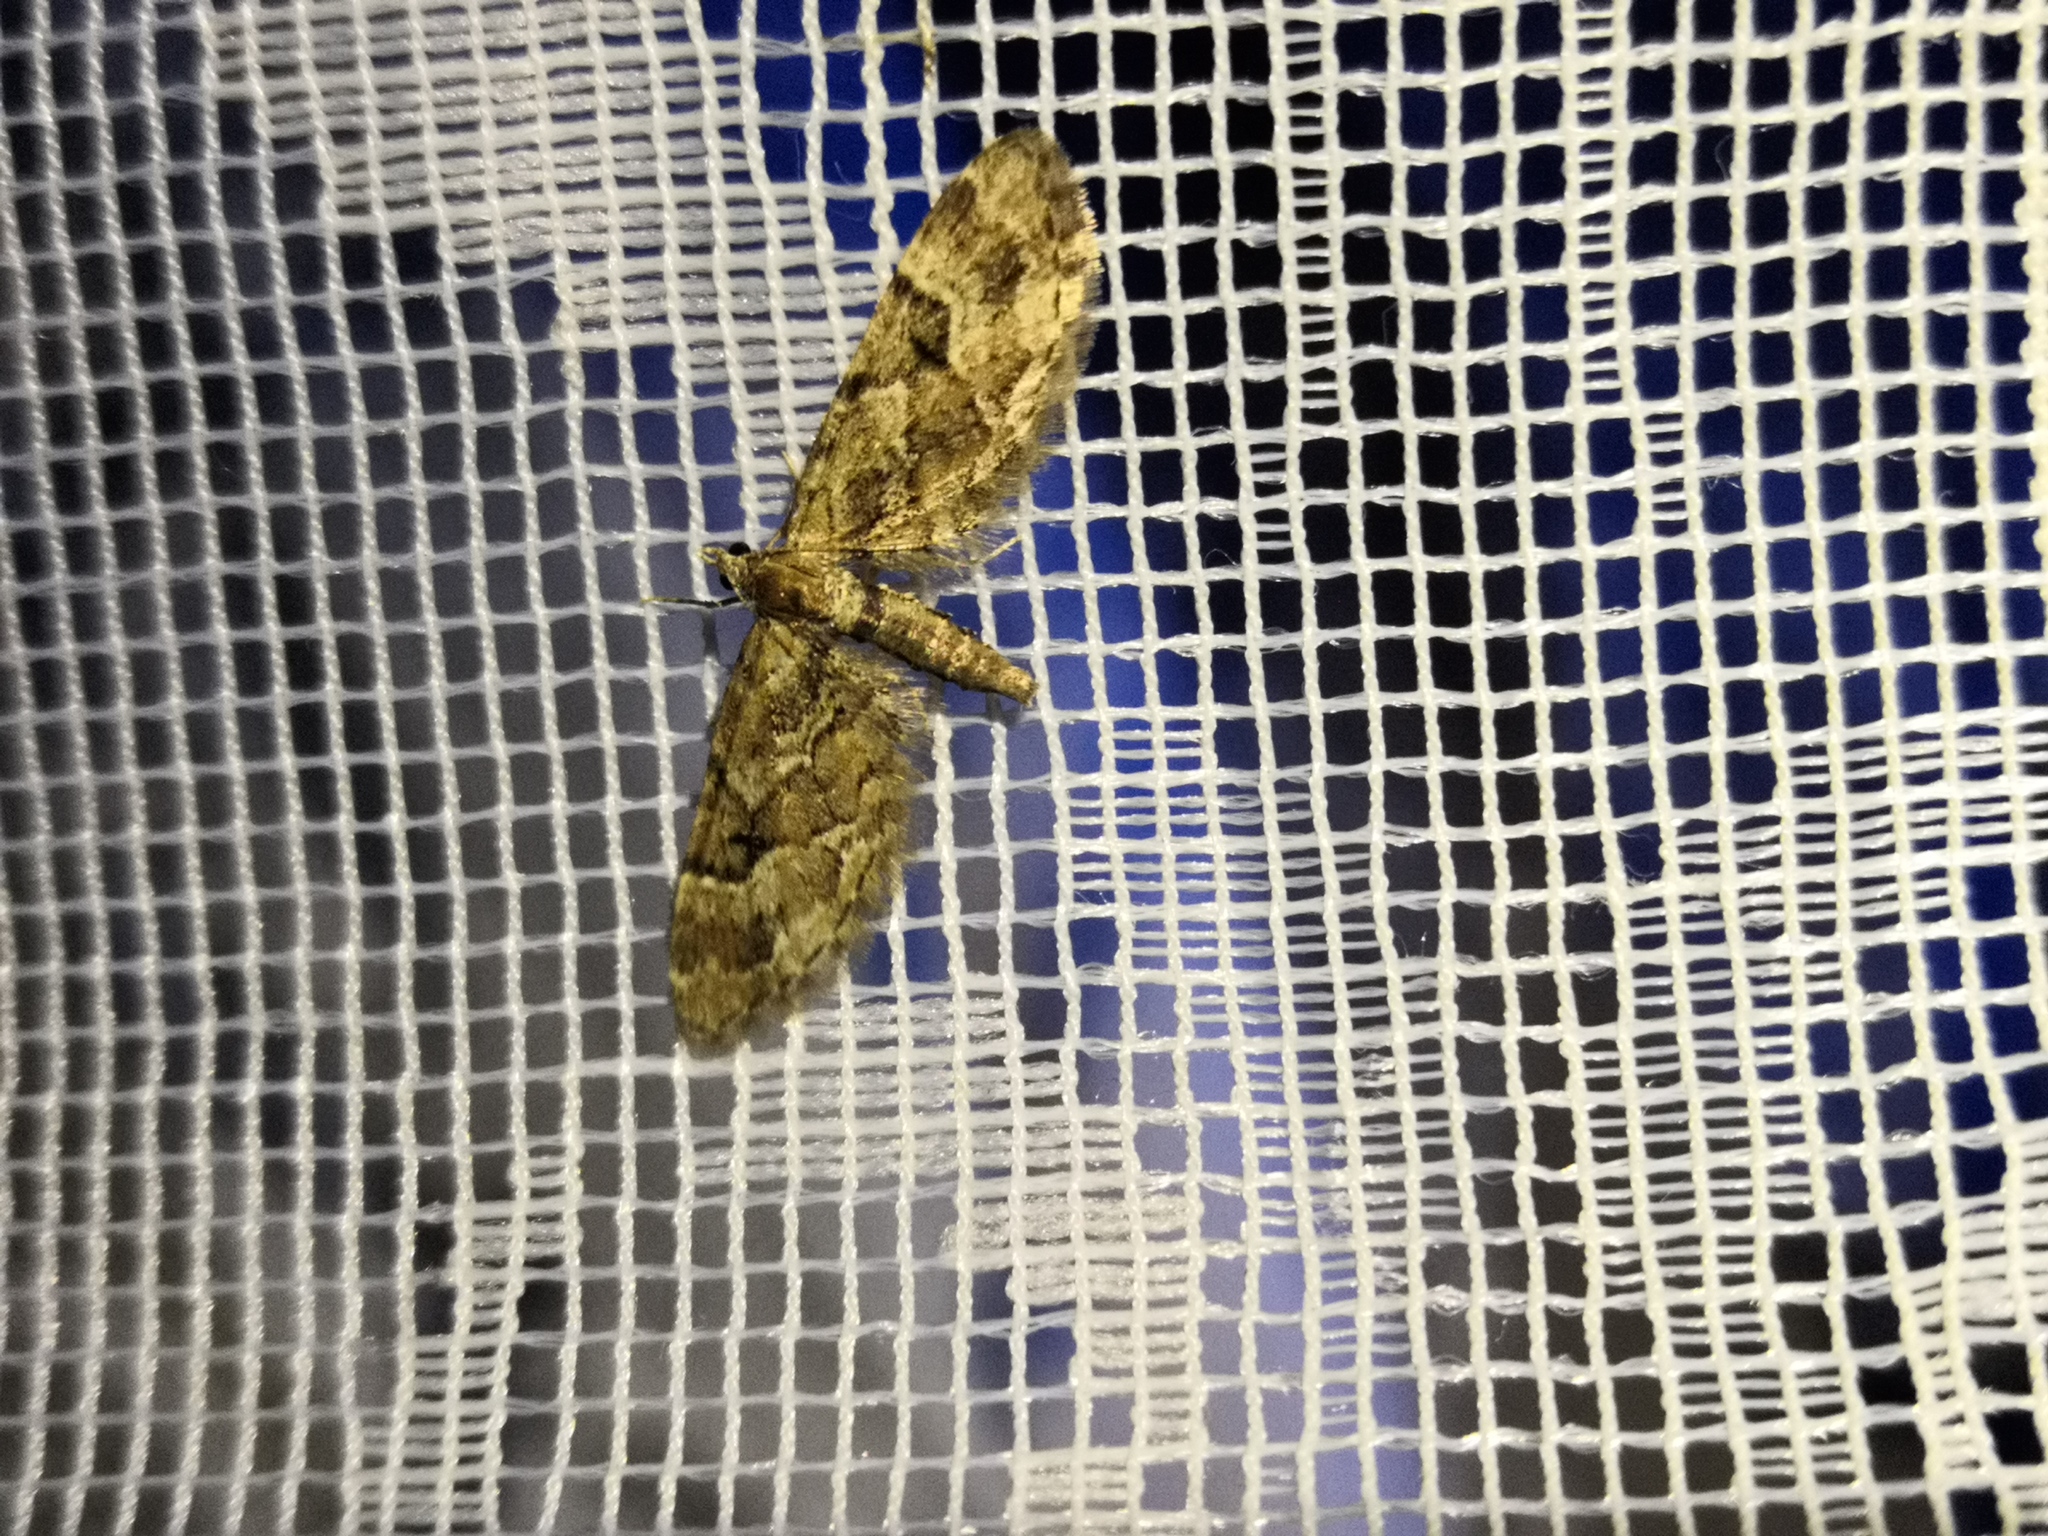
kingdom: Animalia
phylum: Arthropoda
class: Insecta
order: Lepidoptera
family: Geometridae
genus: Eupithecia
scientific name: Eupithecia lanceata
